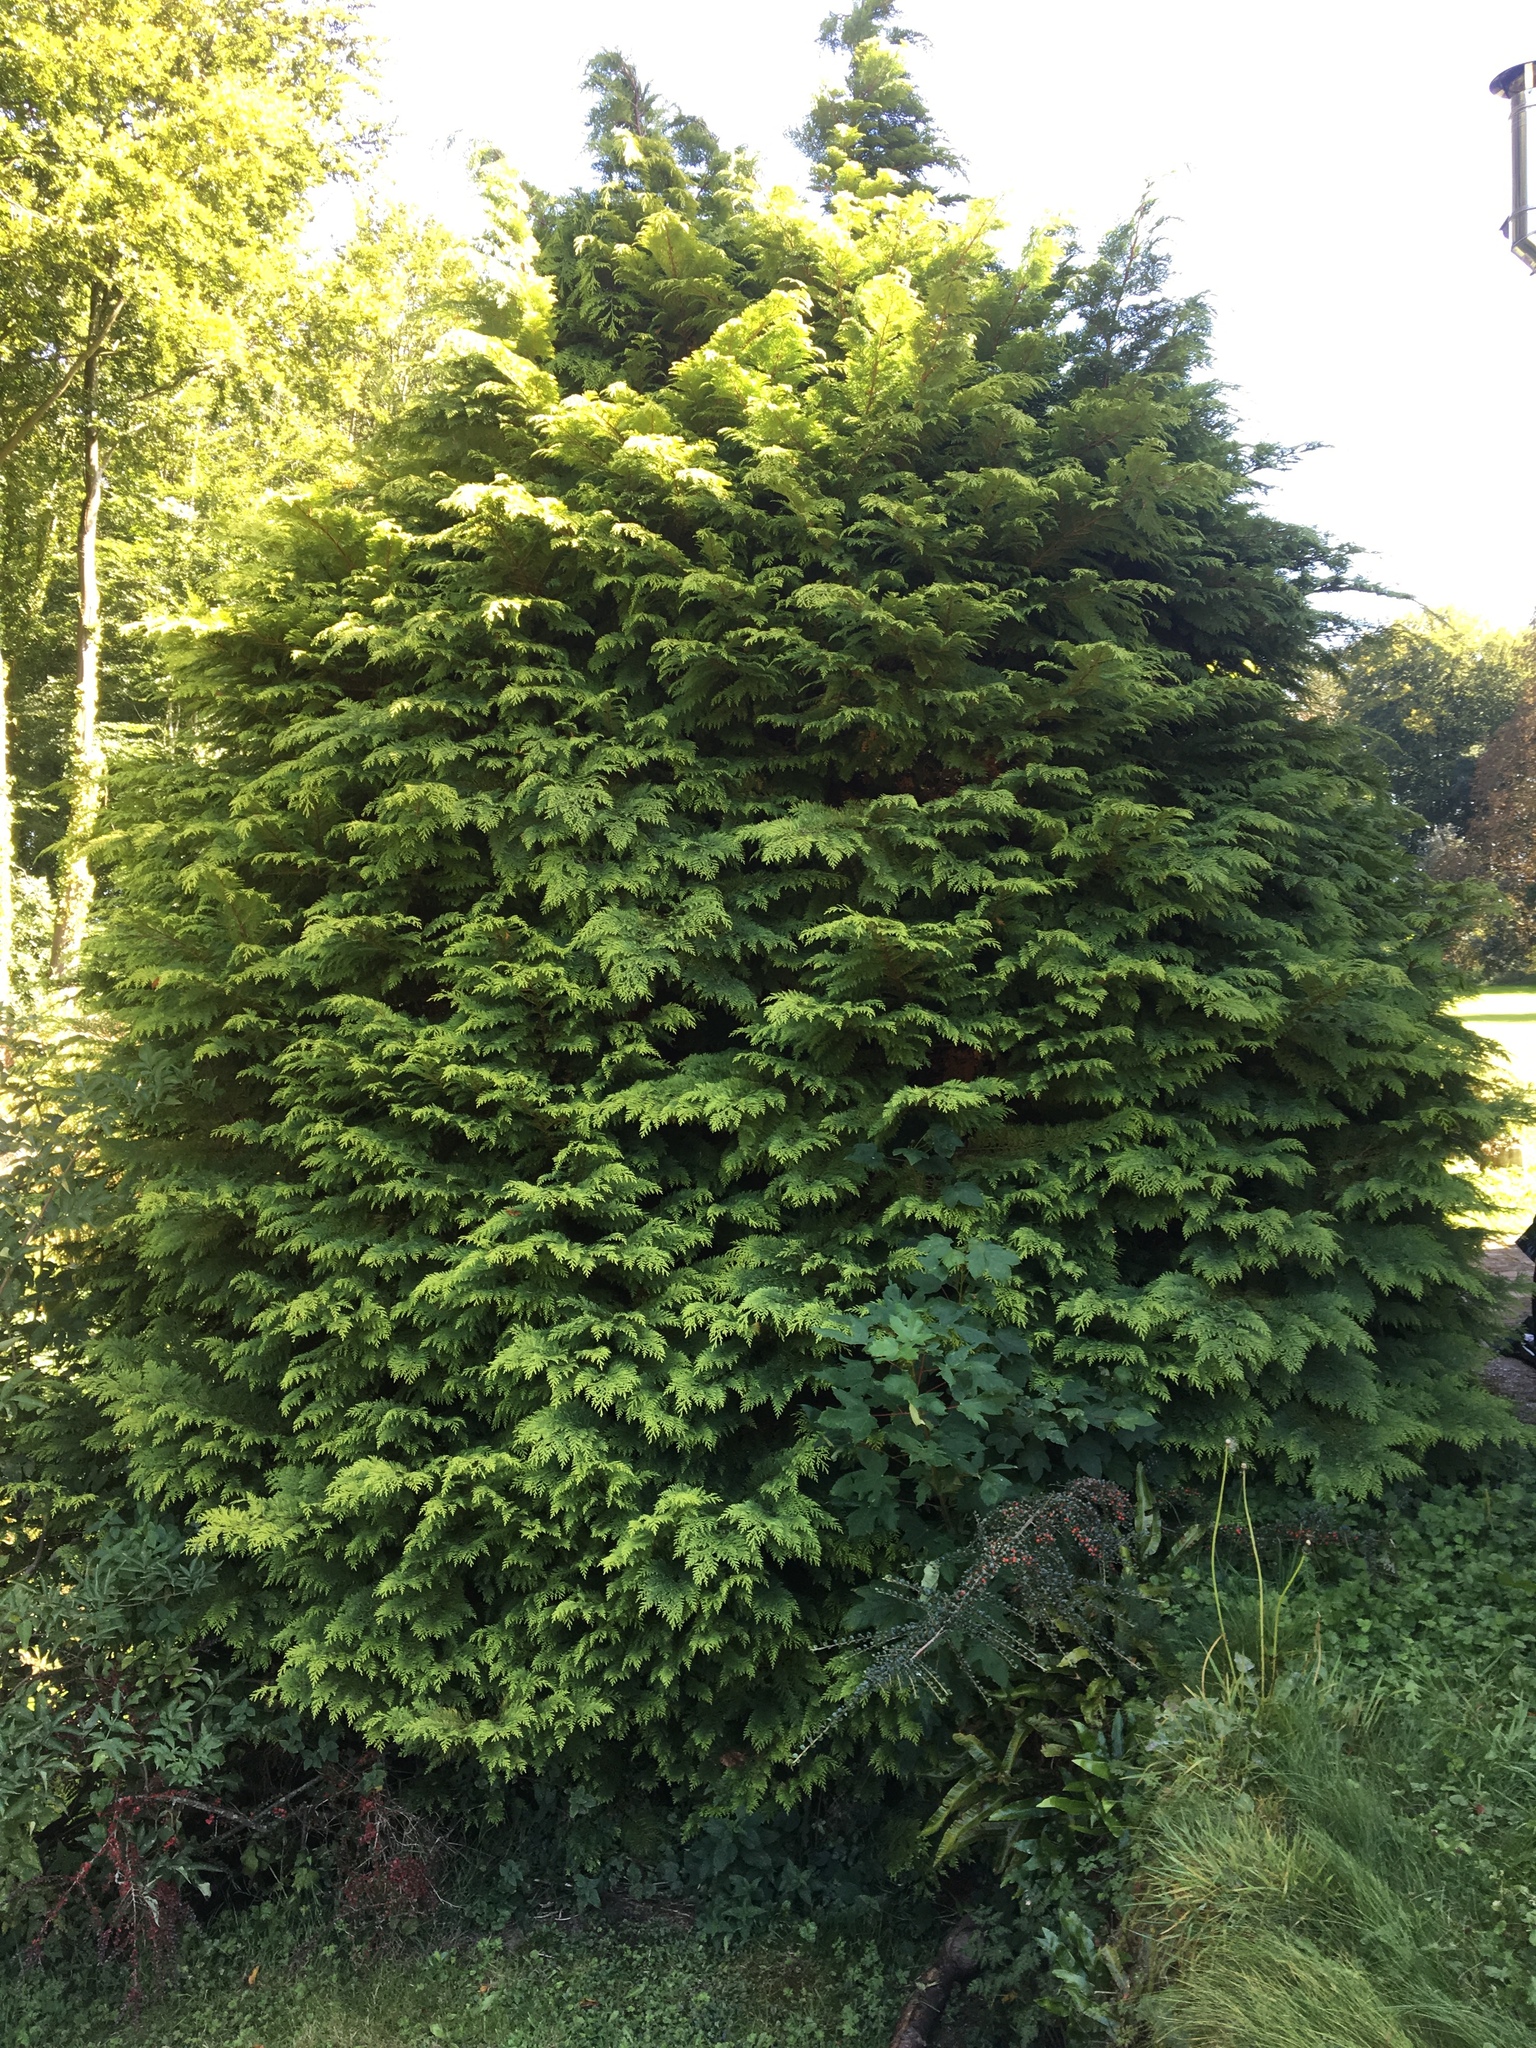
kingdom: Plantae
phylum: Tracheophyta
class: Pinopsida
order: Pinales
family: Cupressaceae
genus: Thuja
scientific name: Thuja plicata
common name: Western red-cedar
